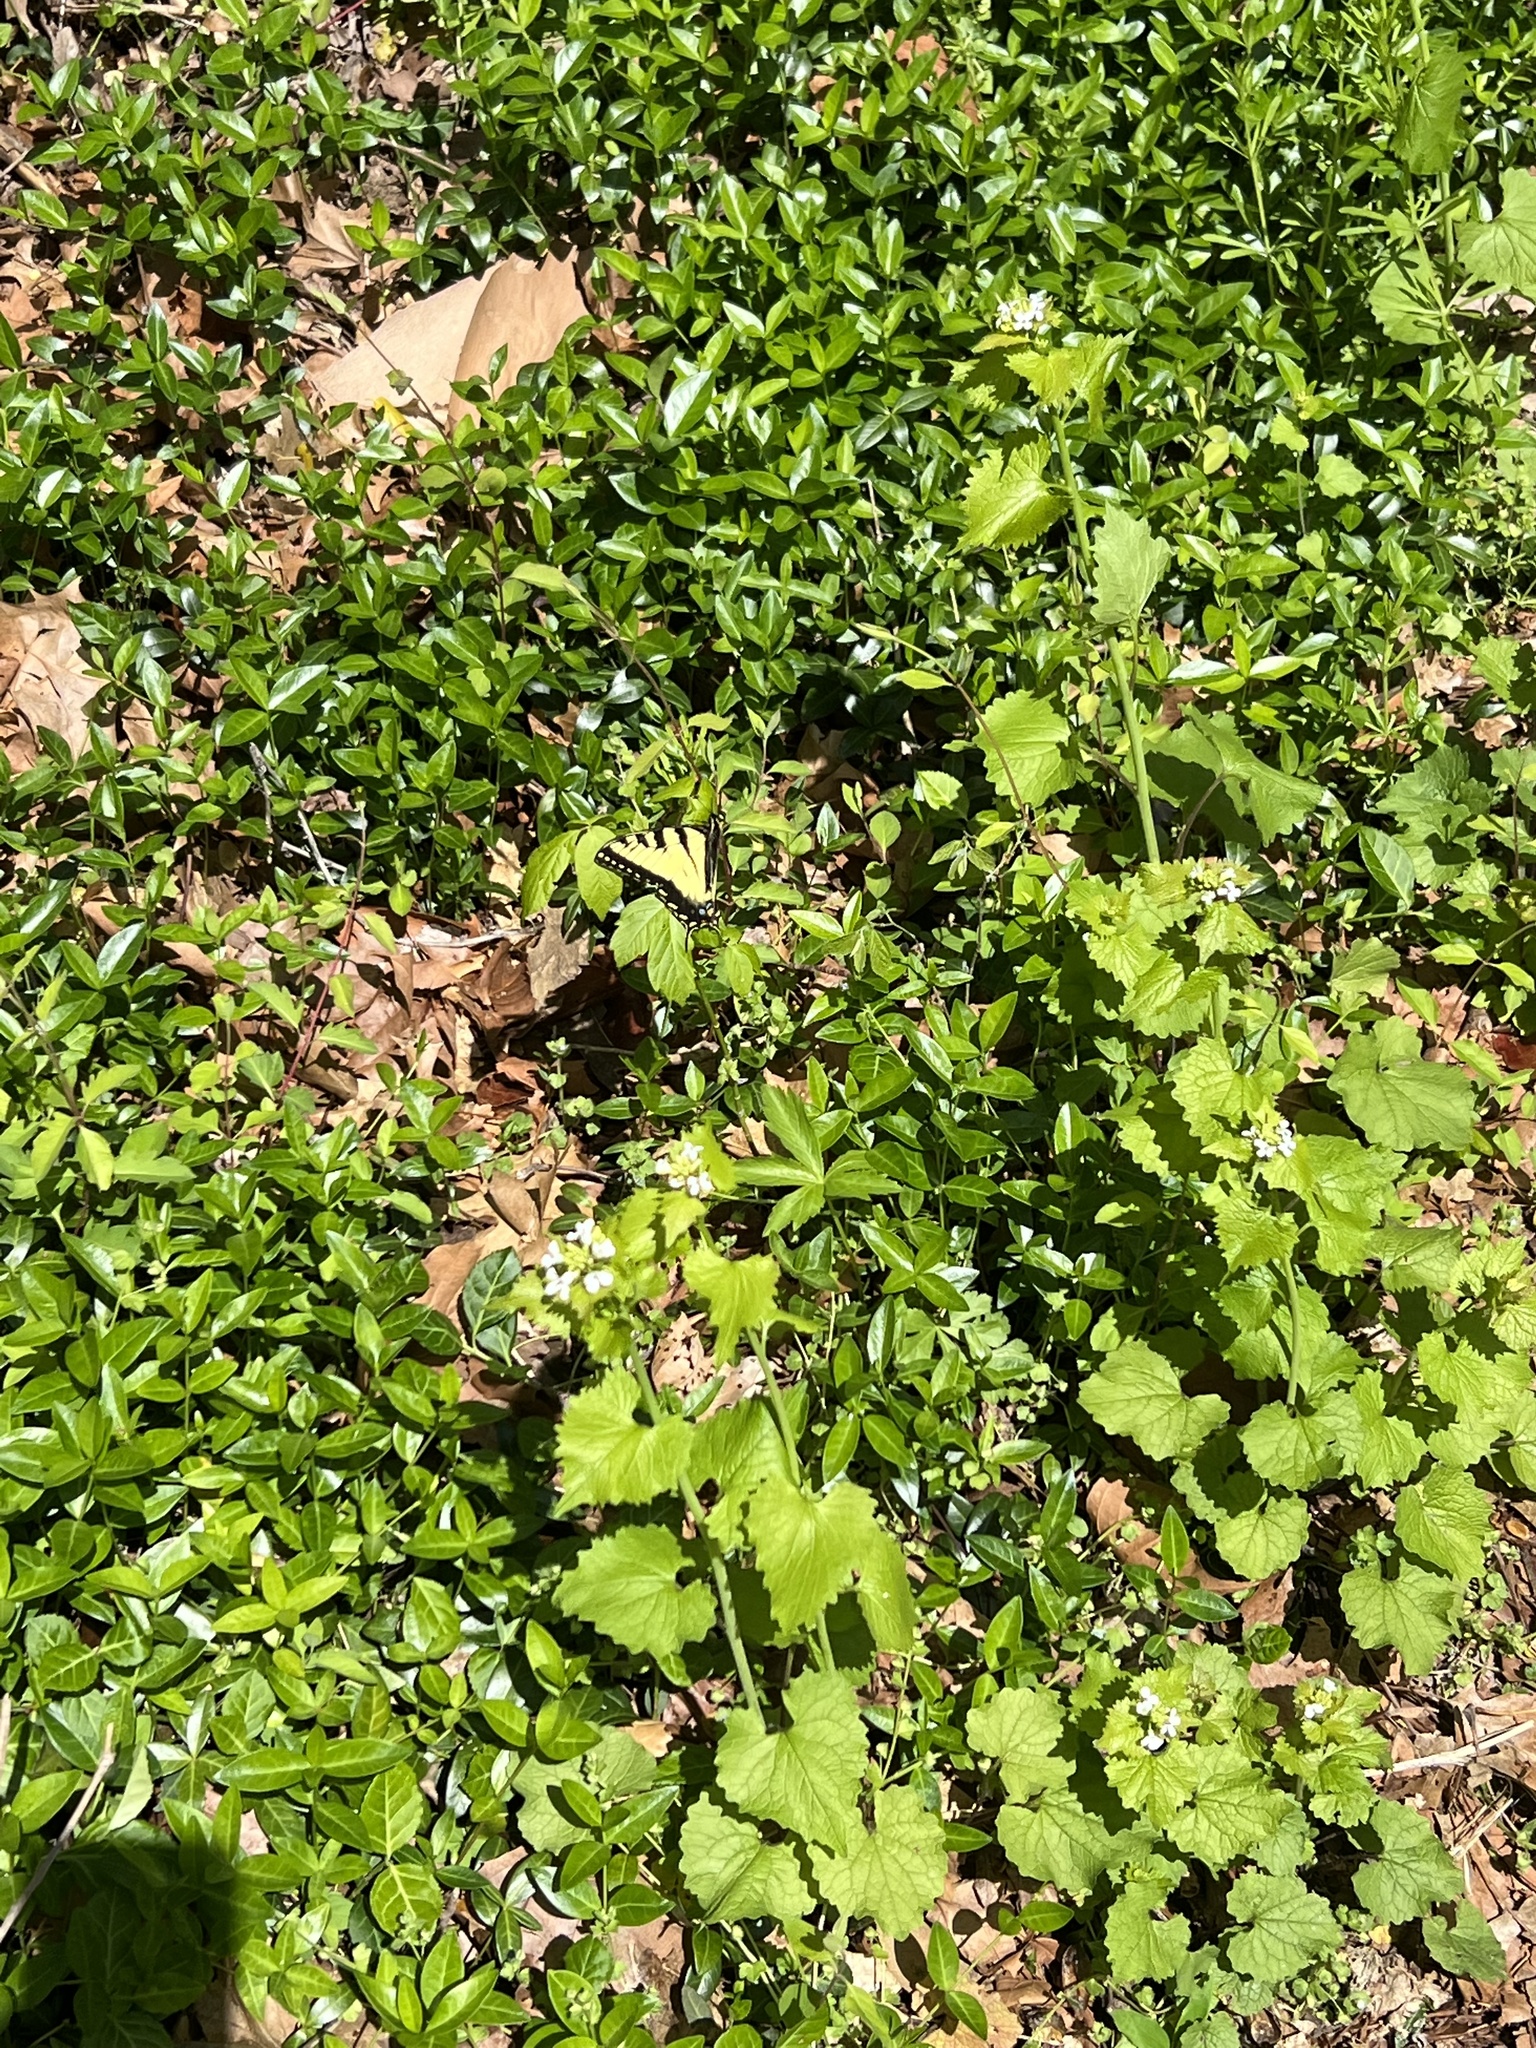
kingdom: Animalia
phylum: Arthropoda
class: Insecta
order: Lepidoptera
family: Papilionidae
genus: Papilio
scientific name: Papilio glaucus
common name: Tiger swallowtail
